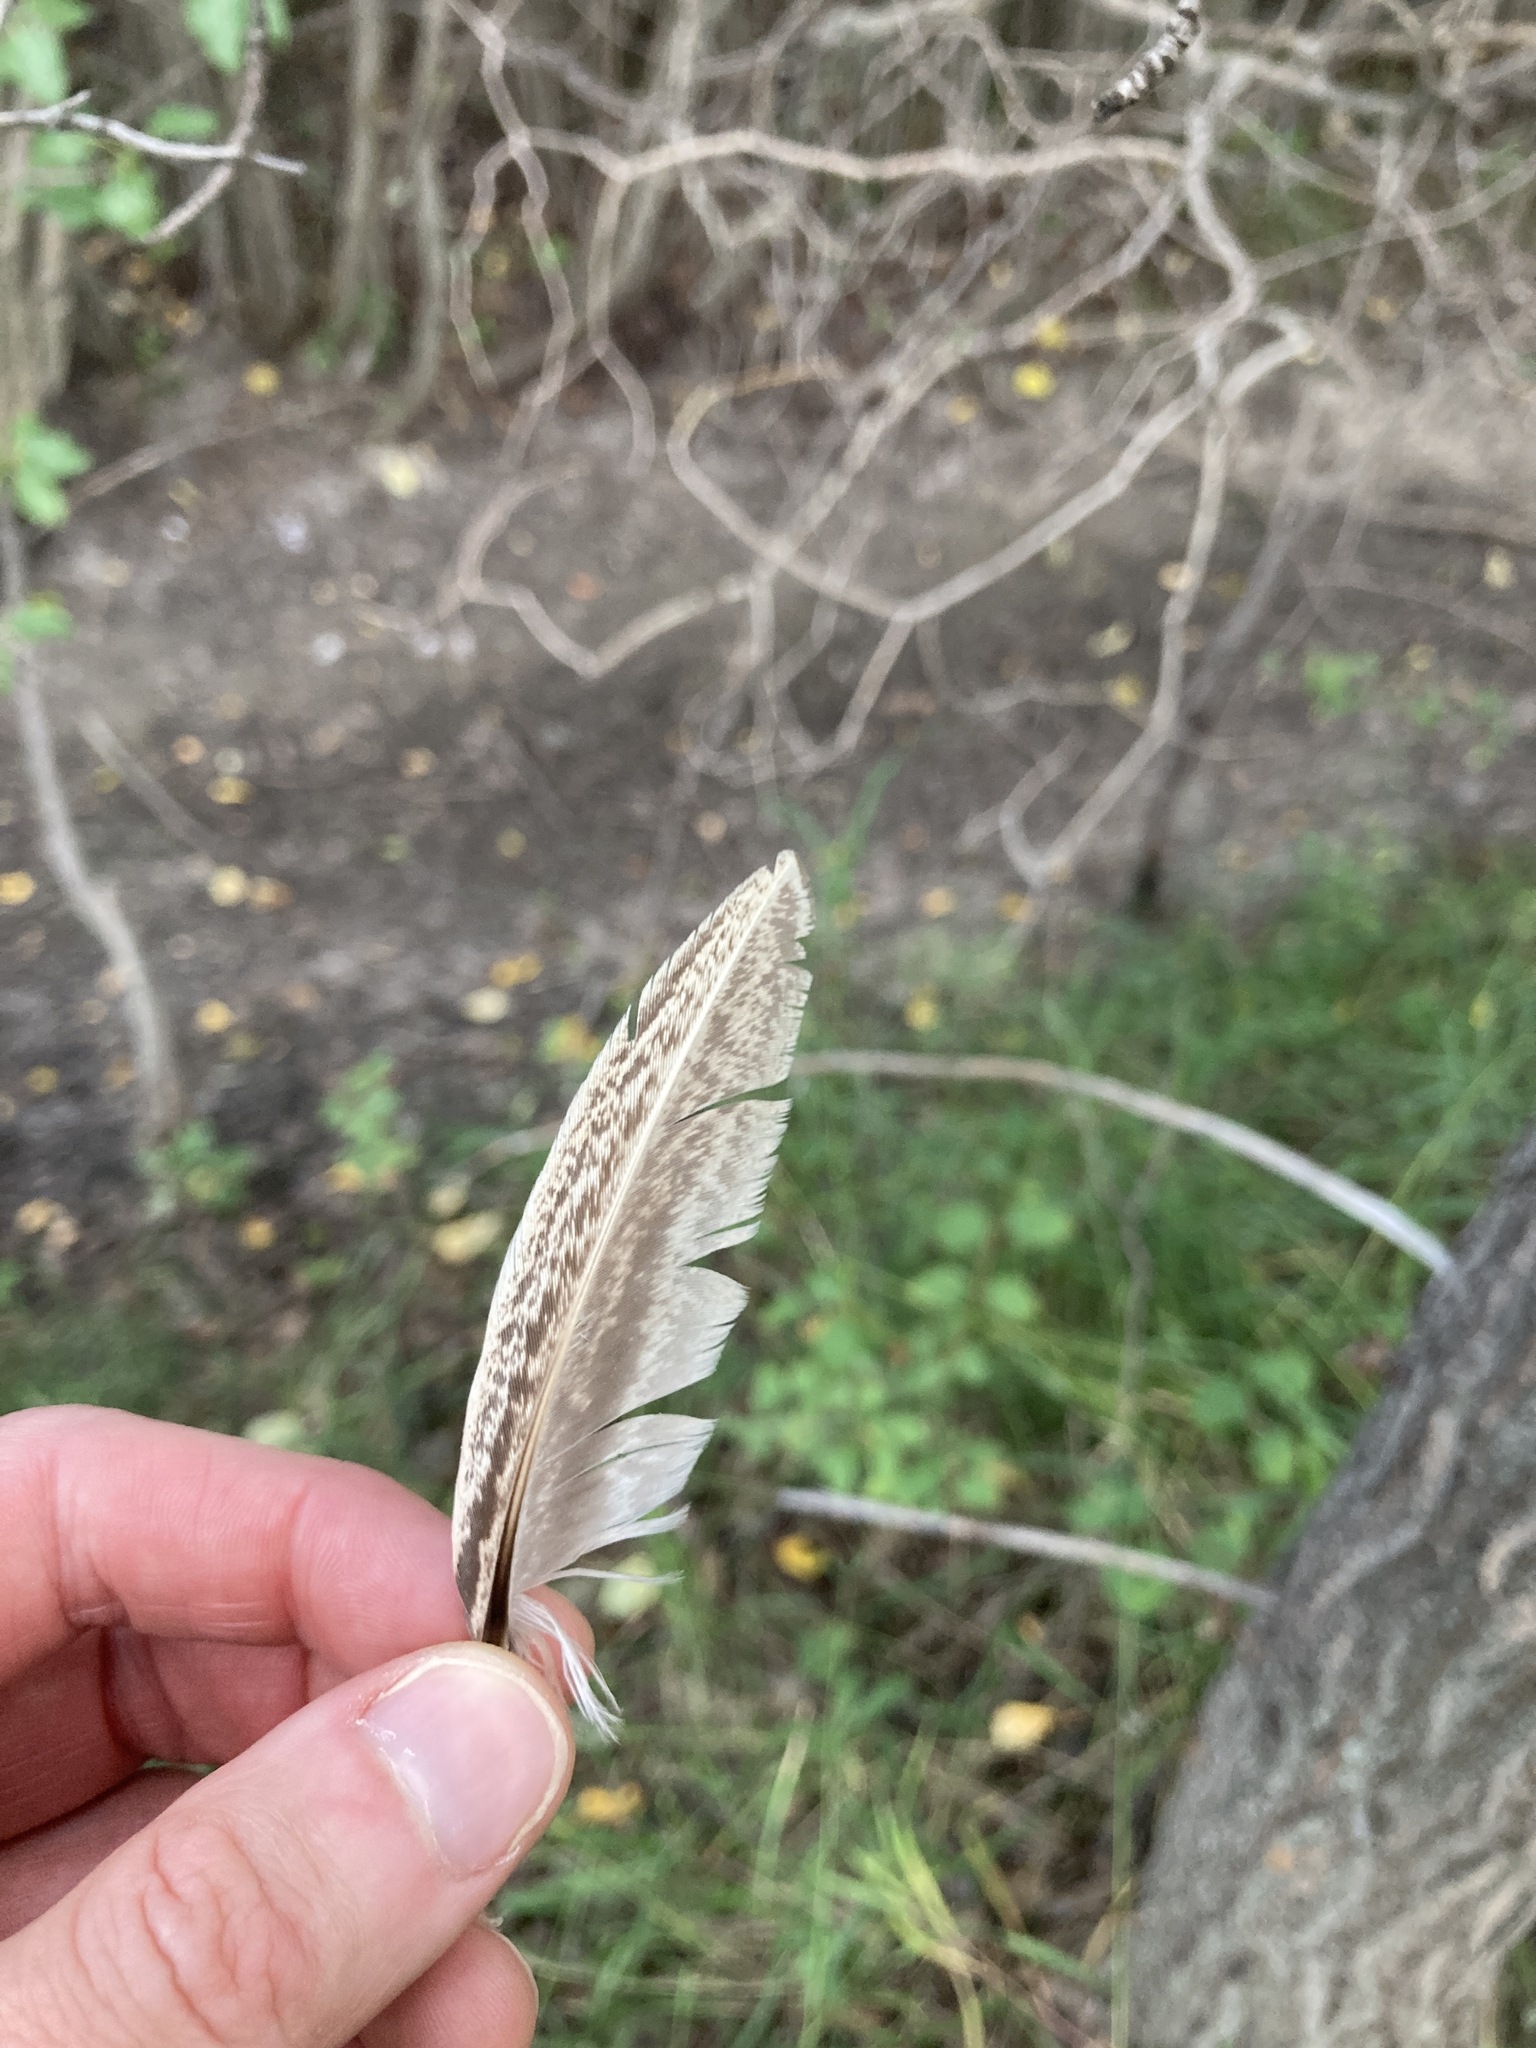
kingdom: Animalia
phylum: Chordata
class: Aves
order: Galliformes
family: Phasianidae
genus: Phasianus
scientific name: Phasianus colchicus
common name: Common pheasant
